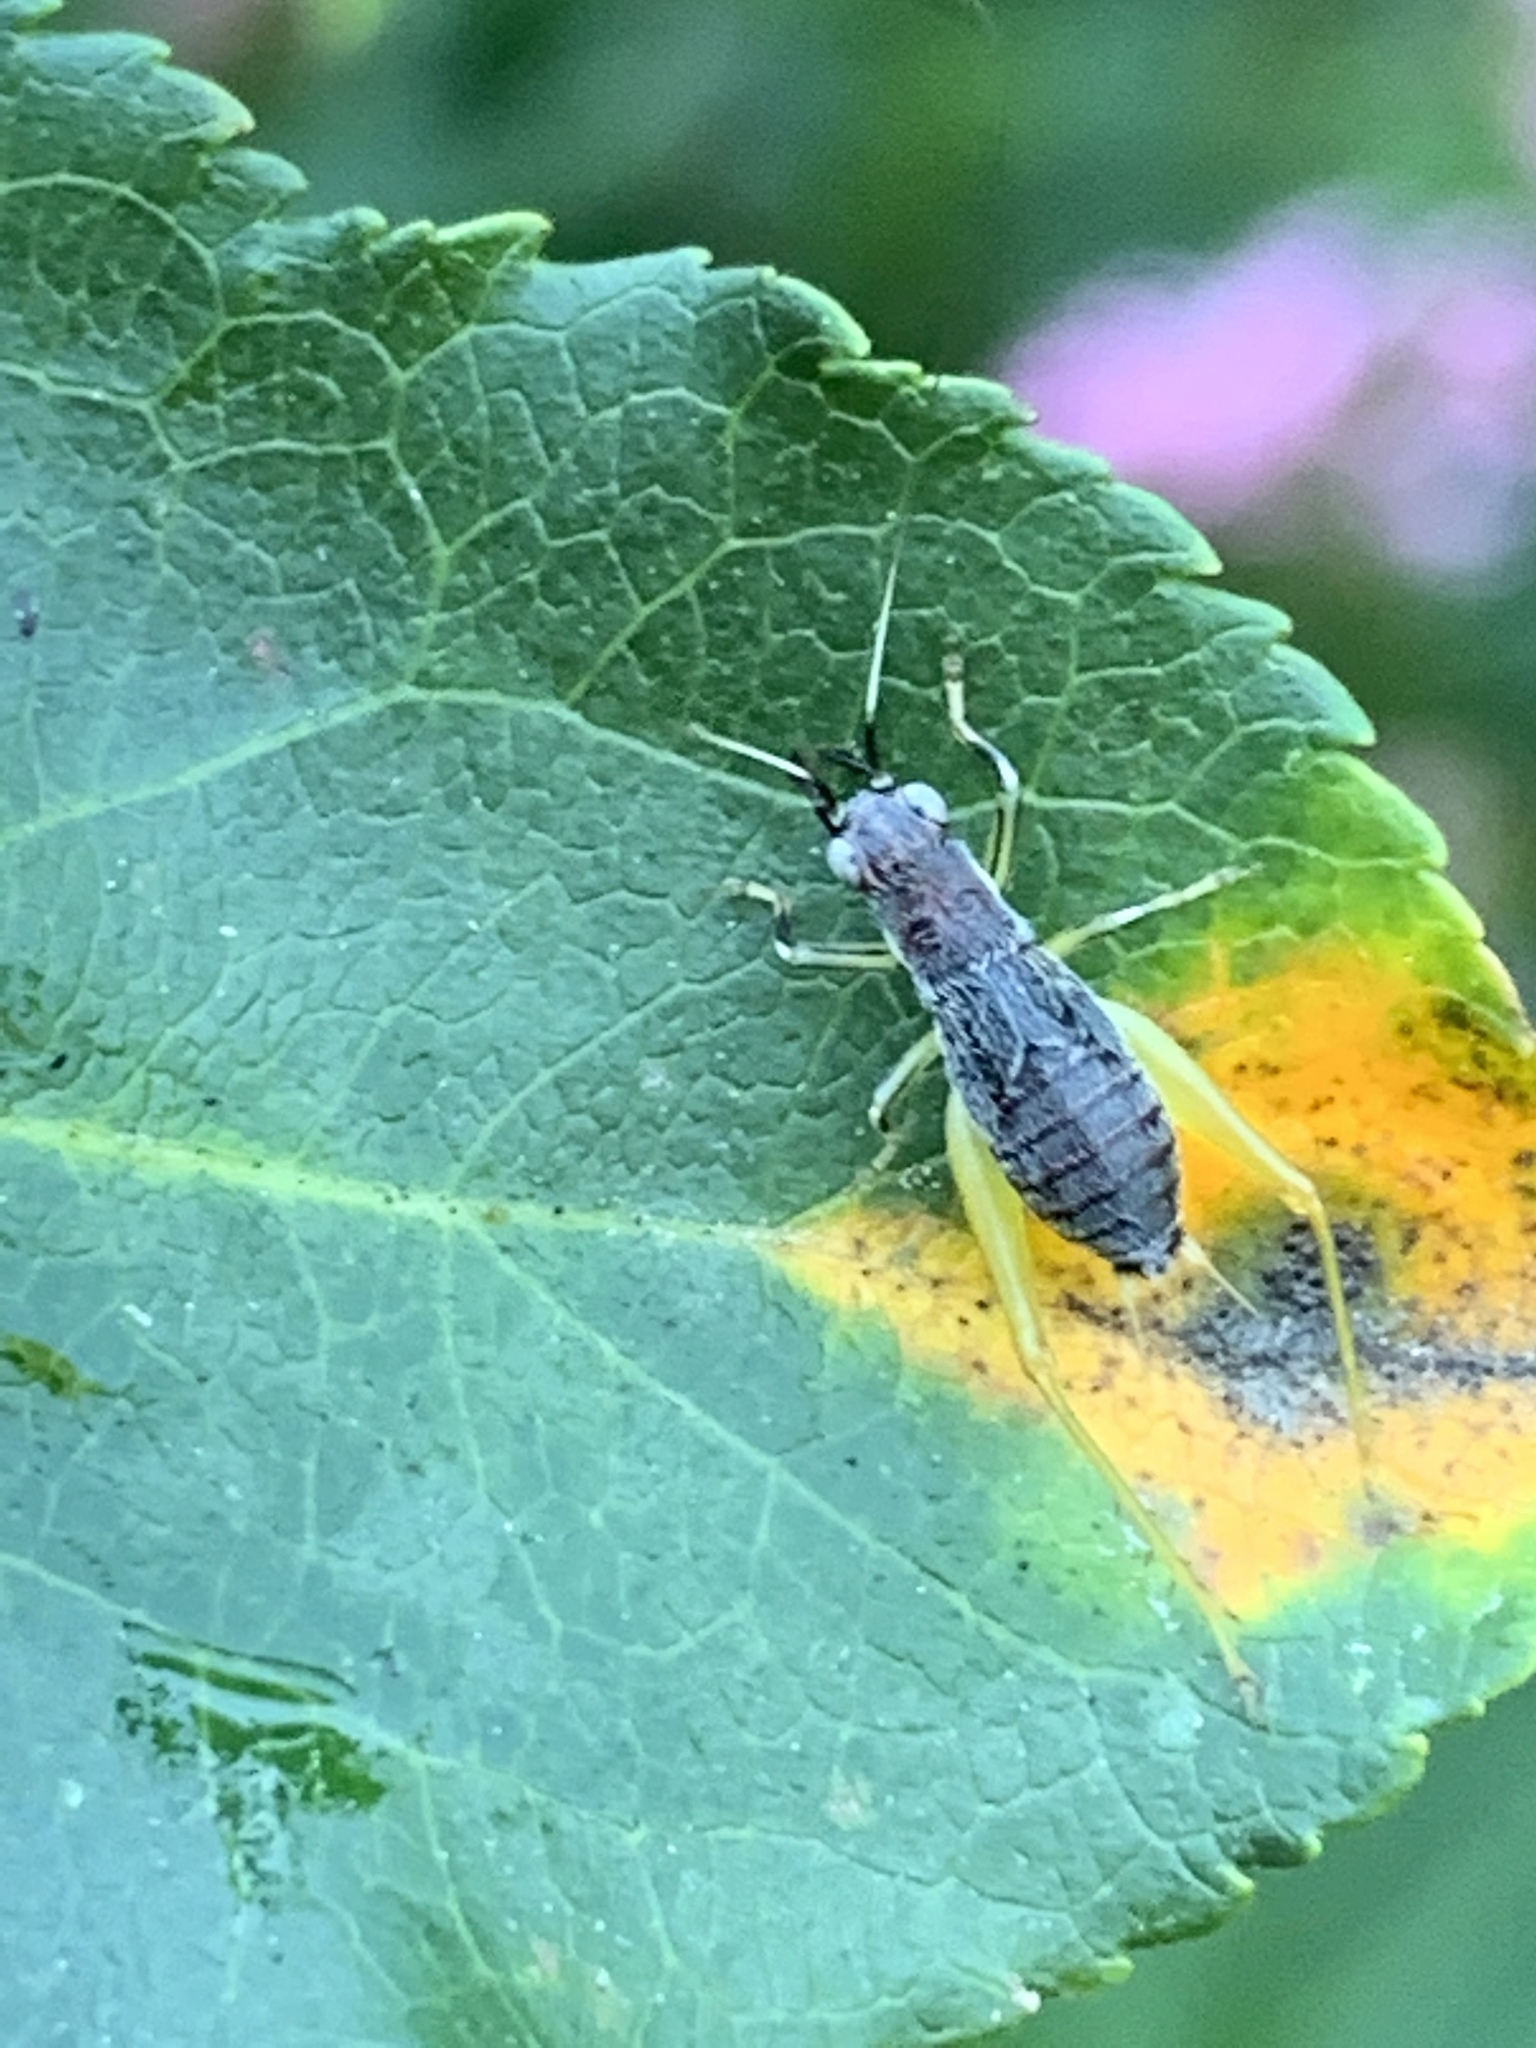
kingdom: Animalia
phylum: Arthropoda
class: Insecta
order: Orthoptera
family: Trigonidiidae
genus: Phyllopalpus
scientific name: Phyllopalpus pulchellus
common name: Handsome trig
